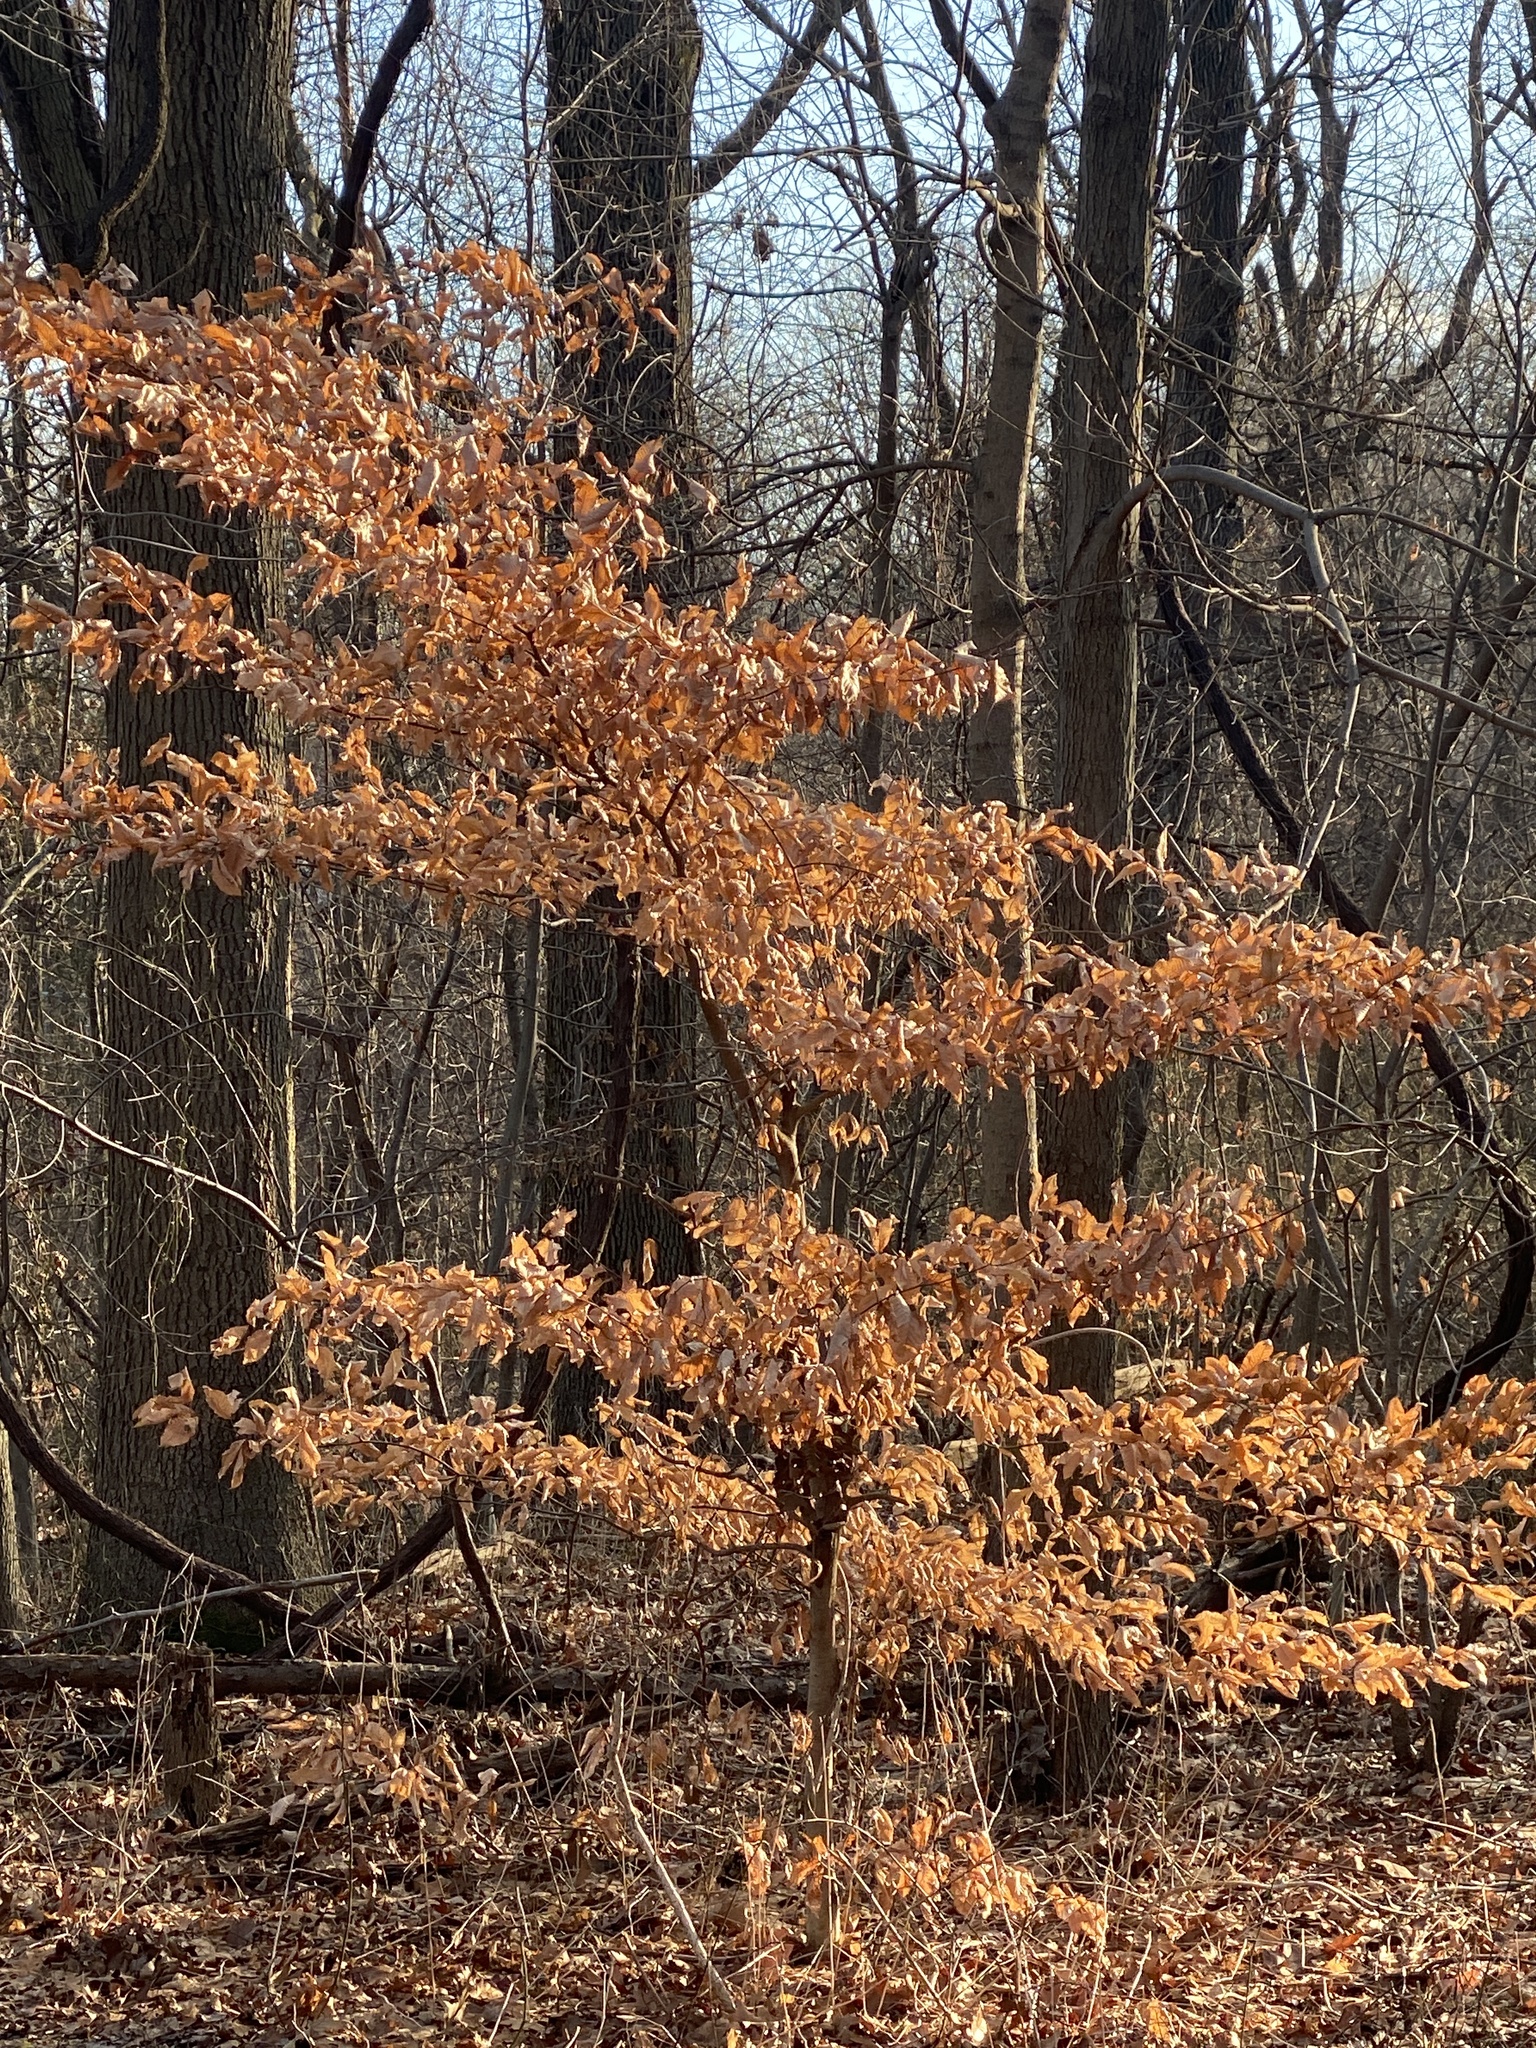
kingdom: Plantae
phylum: Tracheophyta
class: Magnoliopsida
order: Fagales
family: Fagaceae
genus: Fagus
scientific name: Fagus grandifolia
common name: American beech
